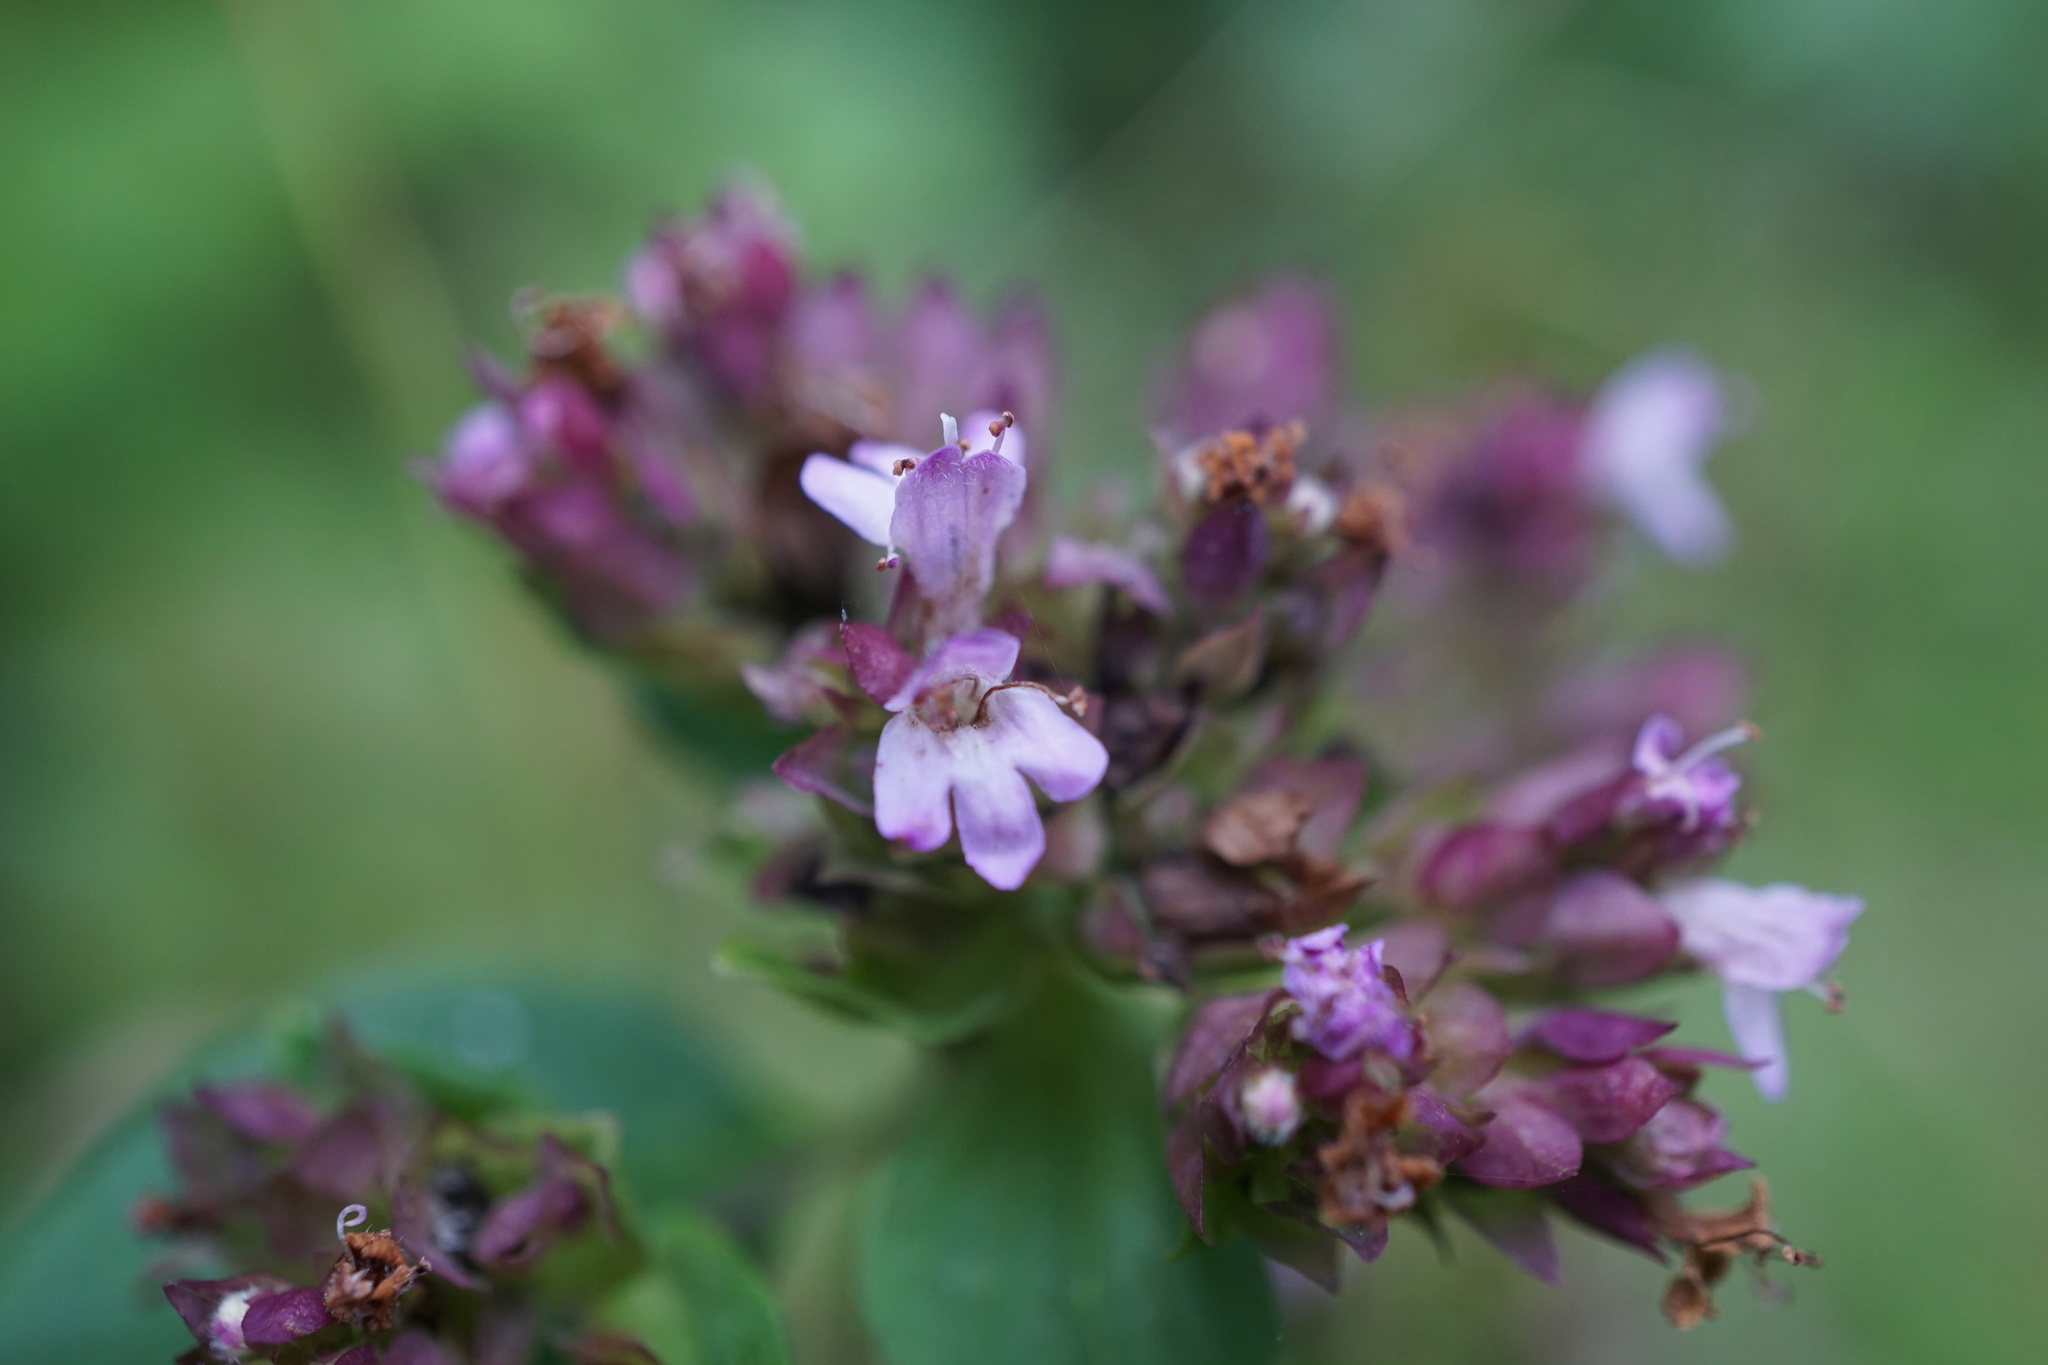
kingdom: Plantae
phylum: Tracheophyta
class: Magnoliopsida
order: Lamiales
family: Lamiaceae
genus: Origanum
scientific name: Origanum vulgare
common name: Wild marjoram
